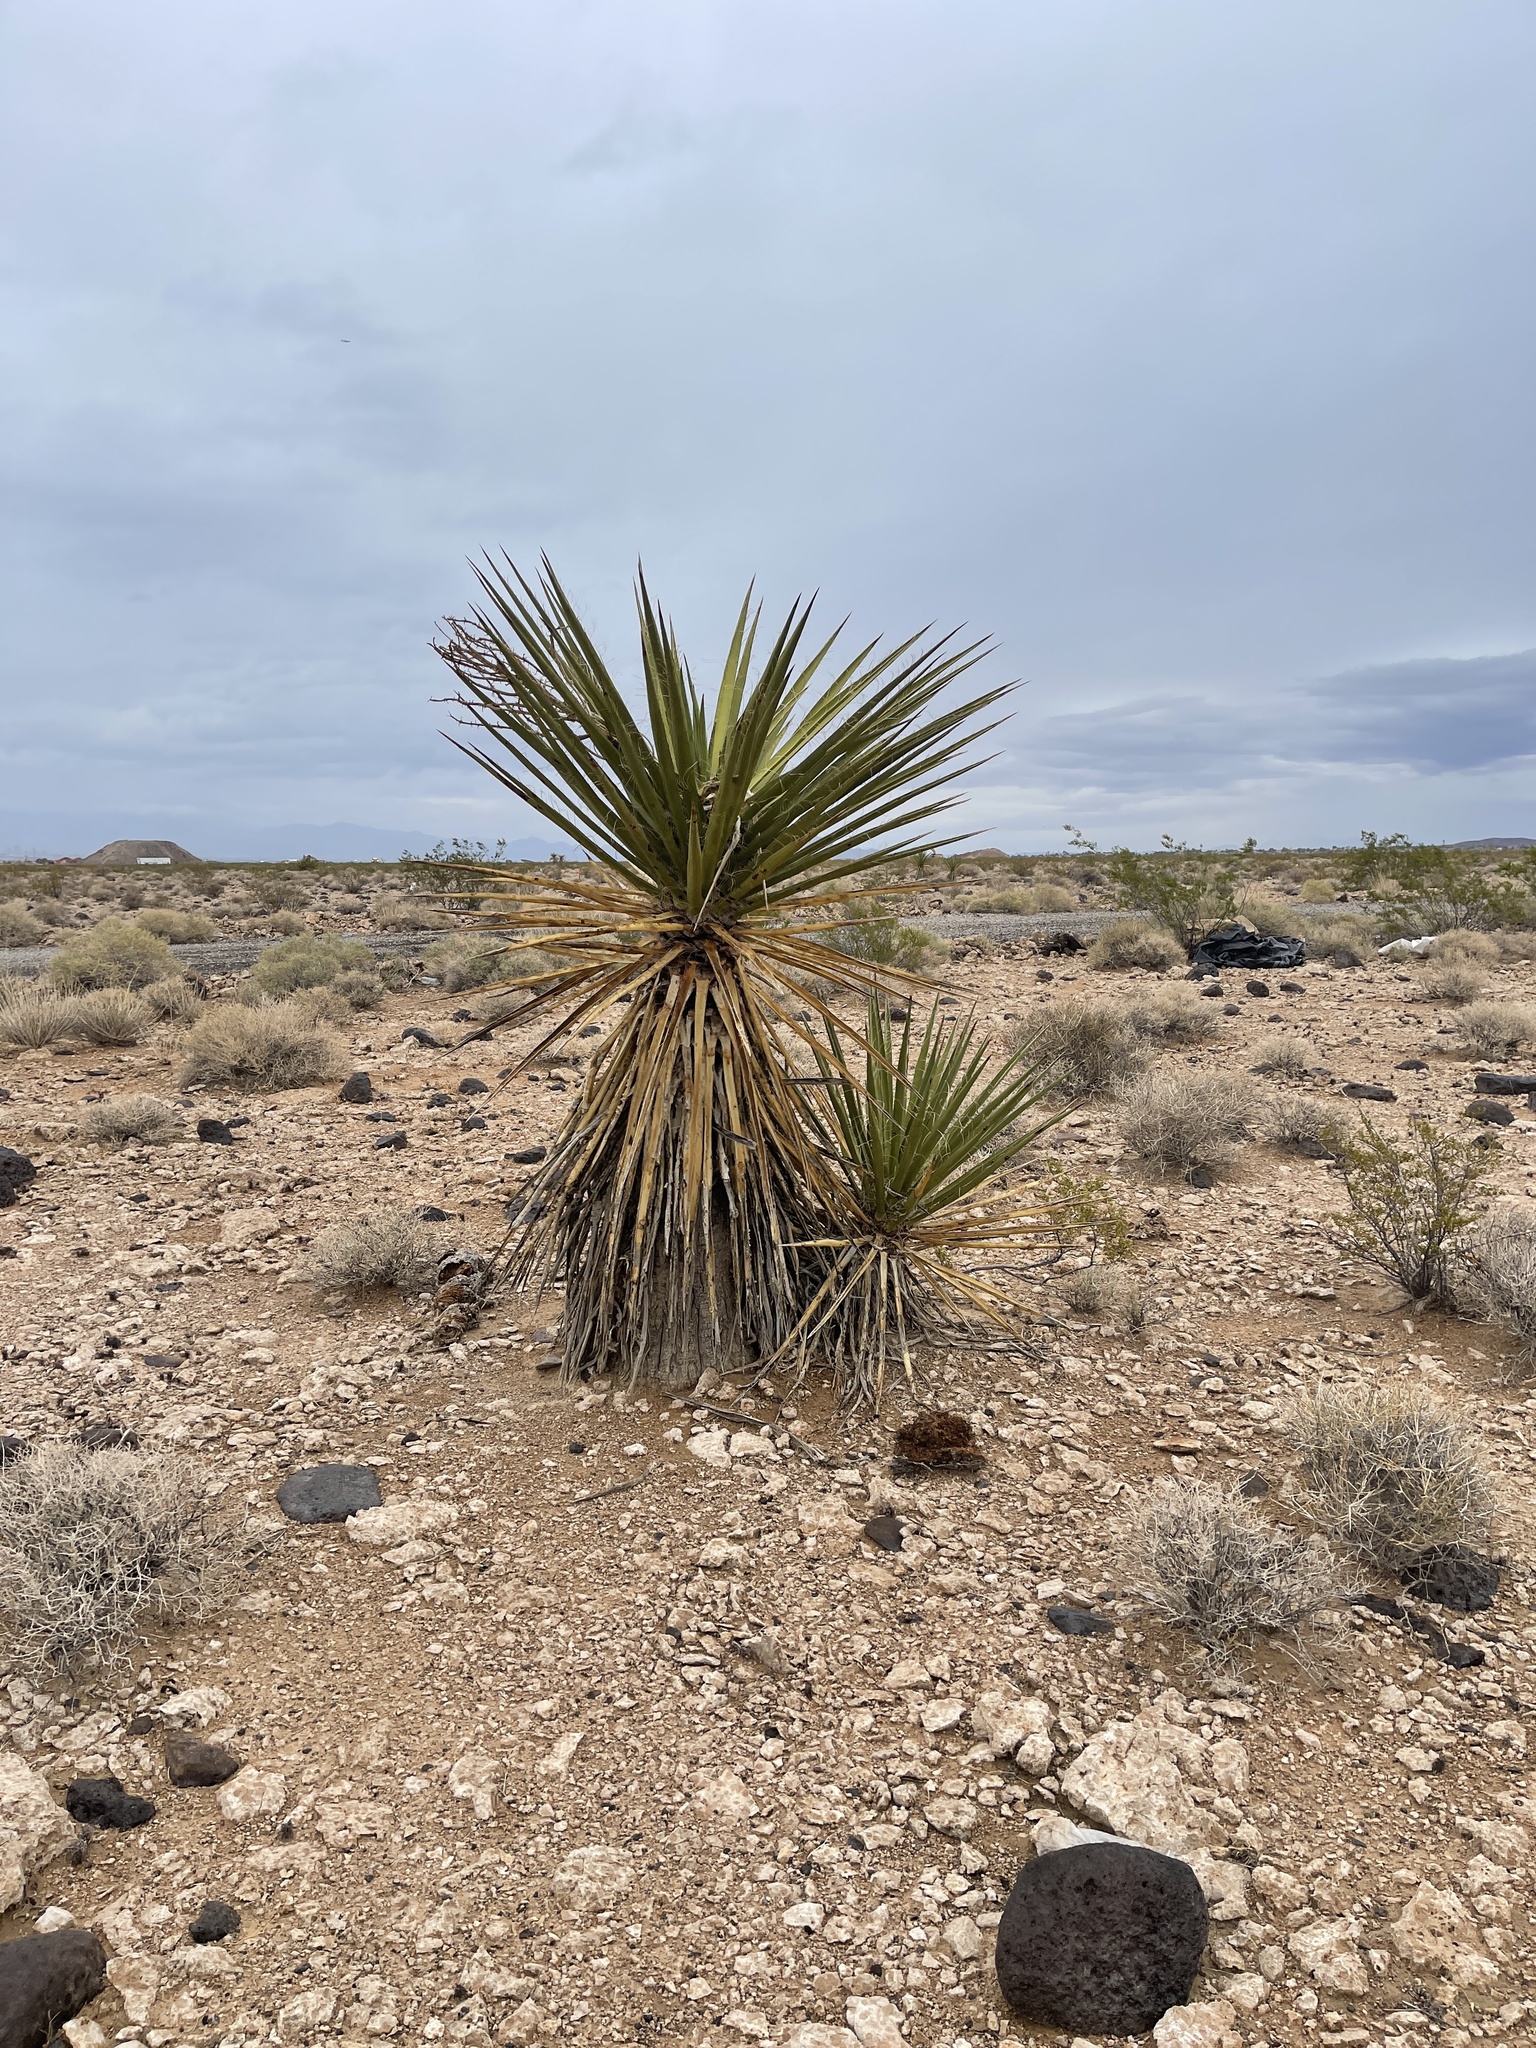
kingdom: Plantae
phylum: Tracheophyta
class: Liliopsida
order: Asparagales
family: Asparagaceae
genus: Yucca
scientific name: Yucca schidigera
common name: Mojave yucca
